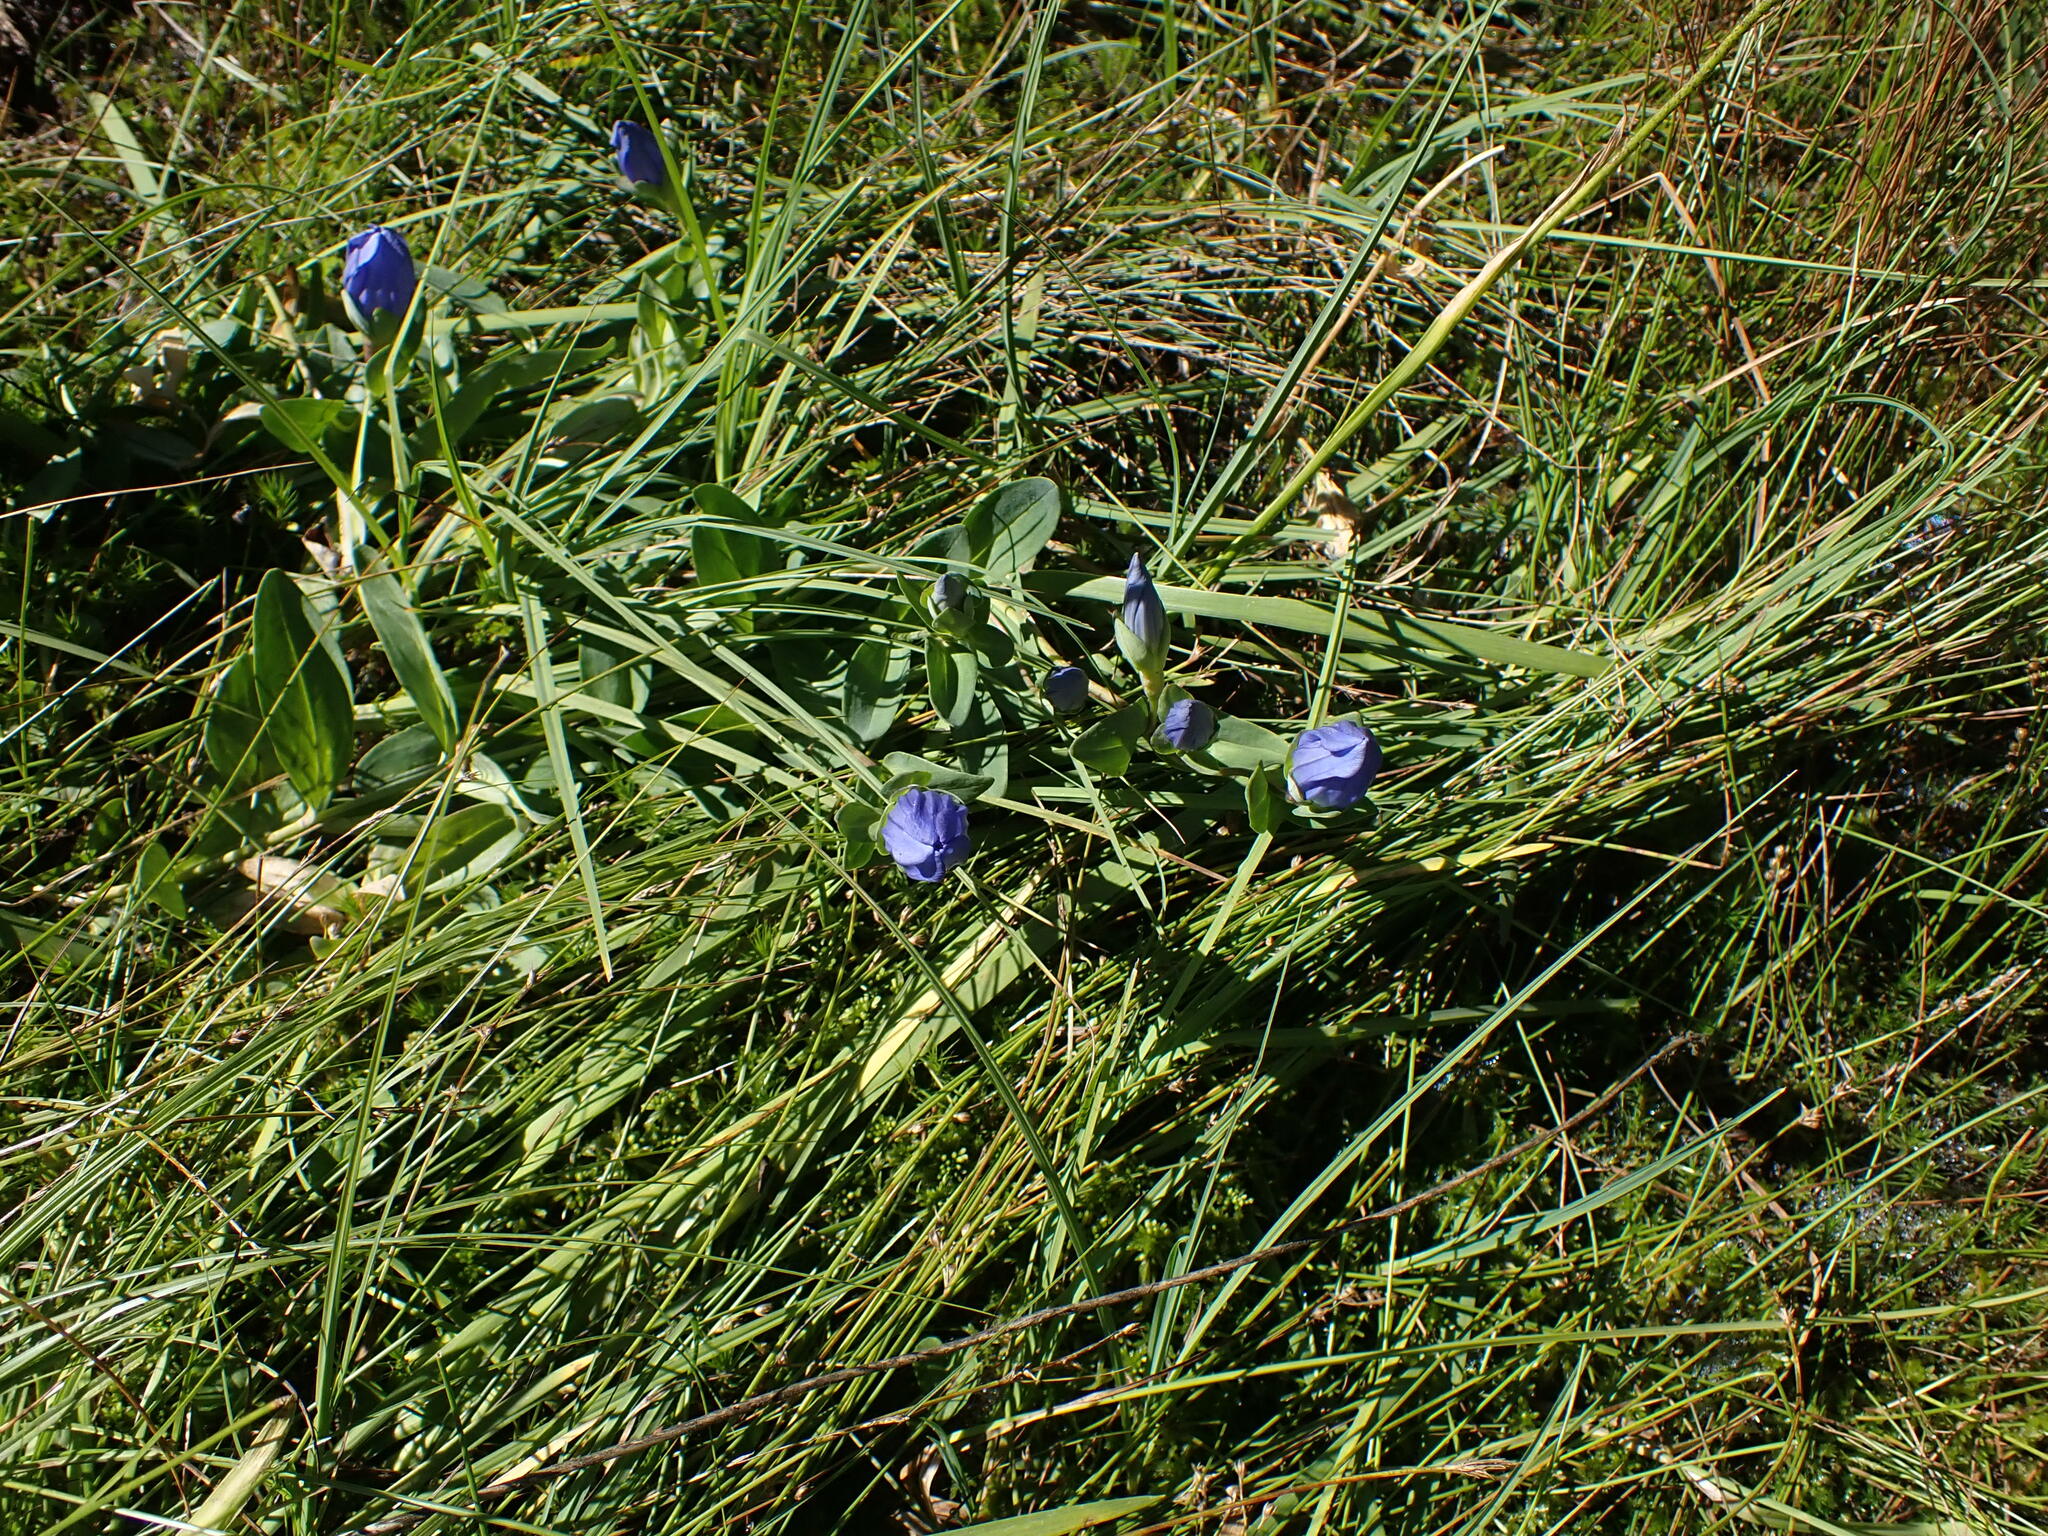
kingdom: Plantae
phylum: Tracheophyta
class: Magnoliopsida
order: Gentianales
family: Gentianaceae
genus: Gentiana
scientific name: Gentiana sceptrum
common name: Pacific gentian
